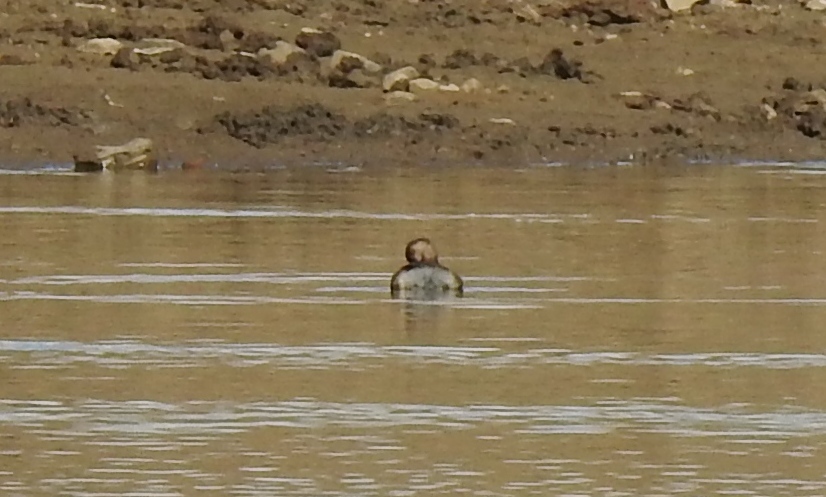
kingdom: Animalia
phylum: Chordata
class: Aves
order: Podicipediformes
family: Podicipedidae
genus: Tachybaptus
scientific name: Tachybaptus ruficollis
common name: Little grebe
